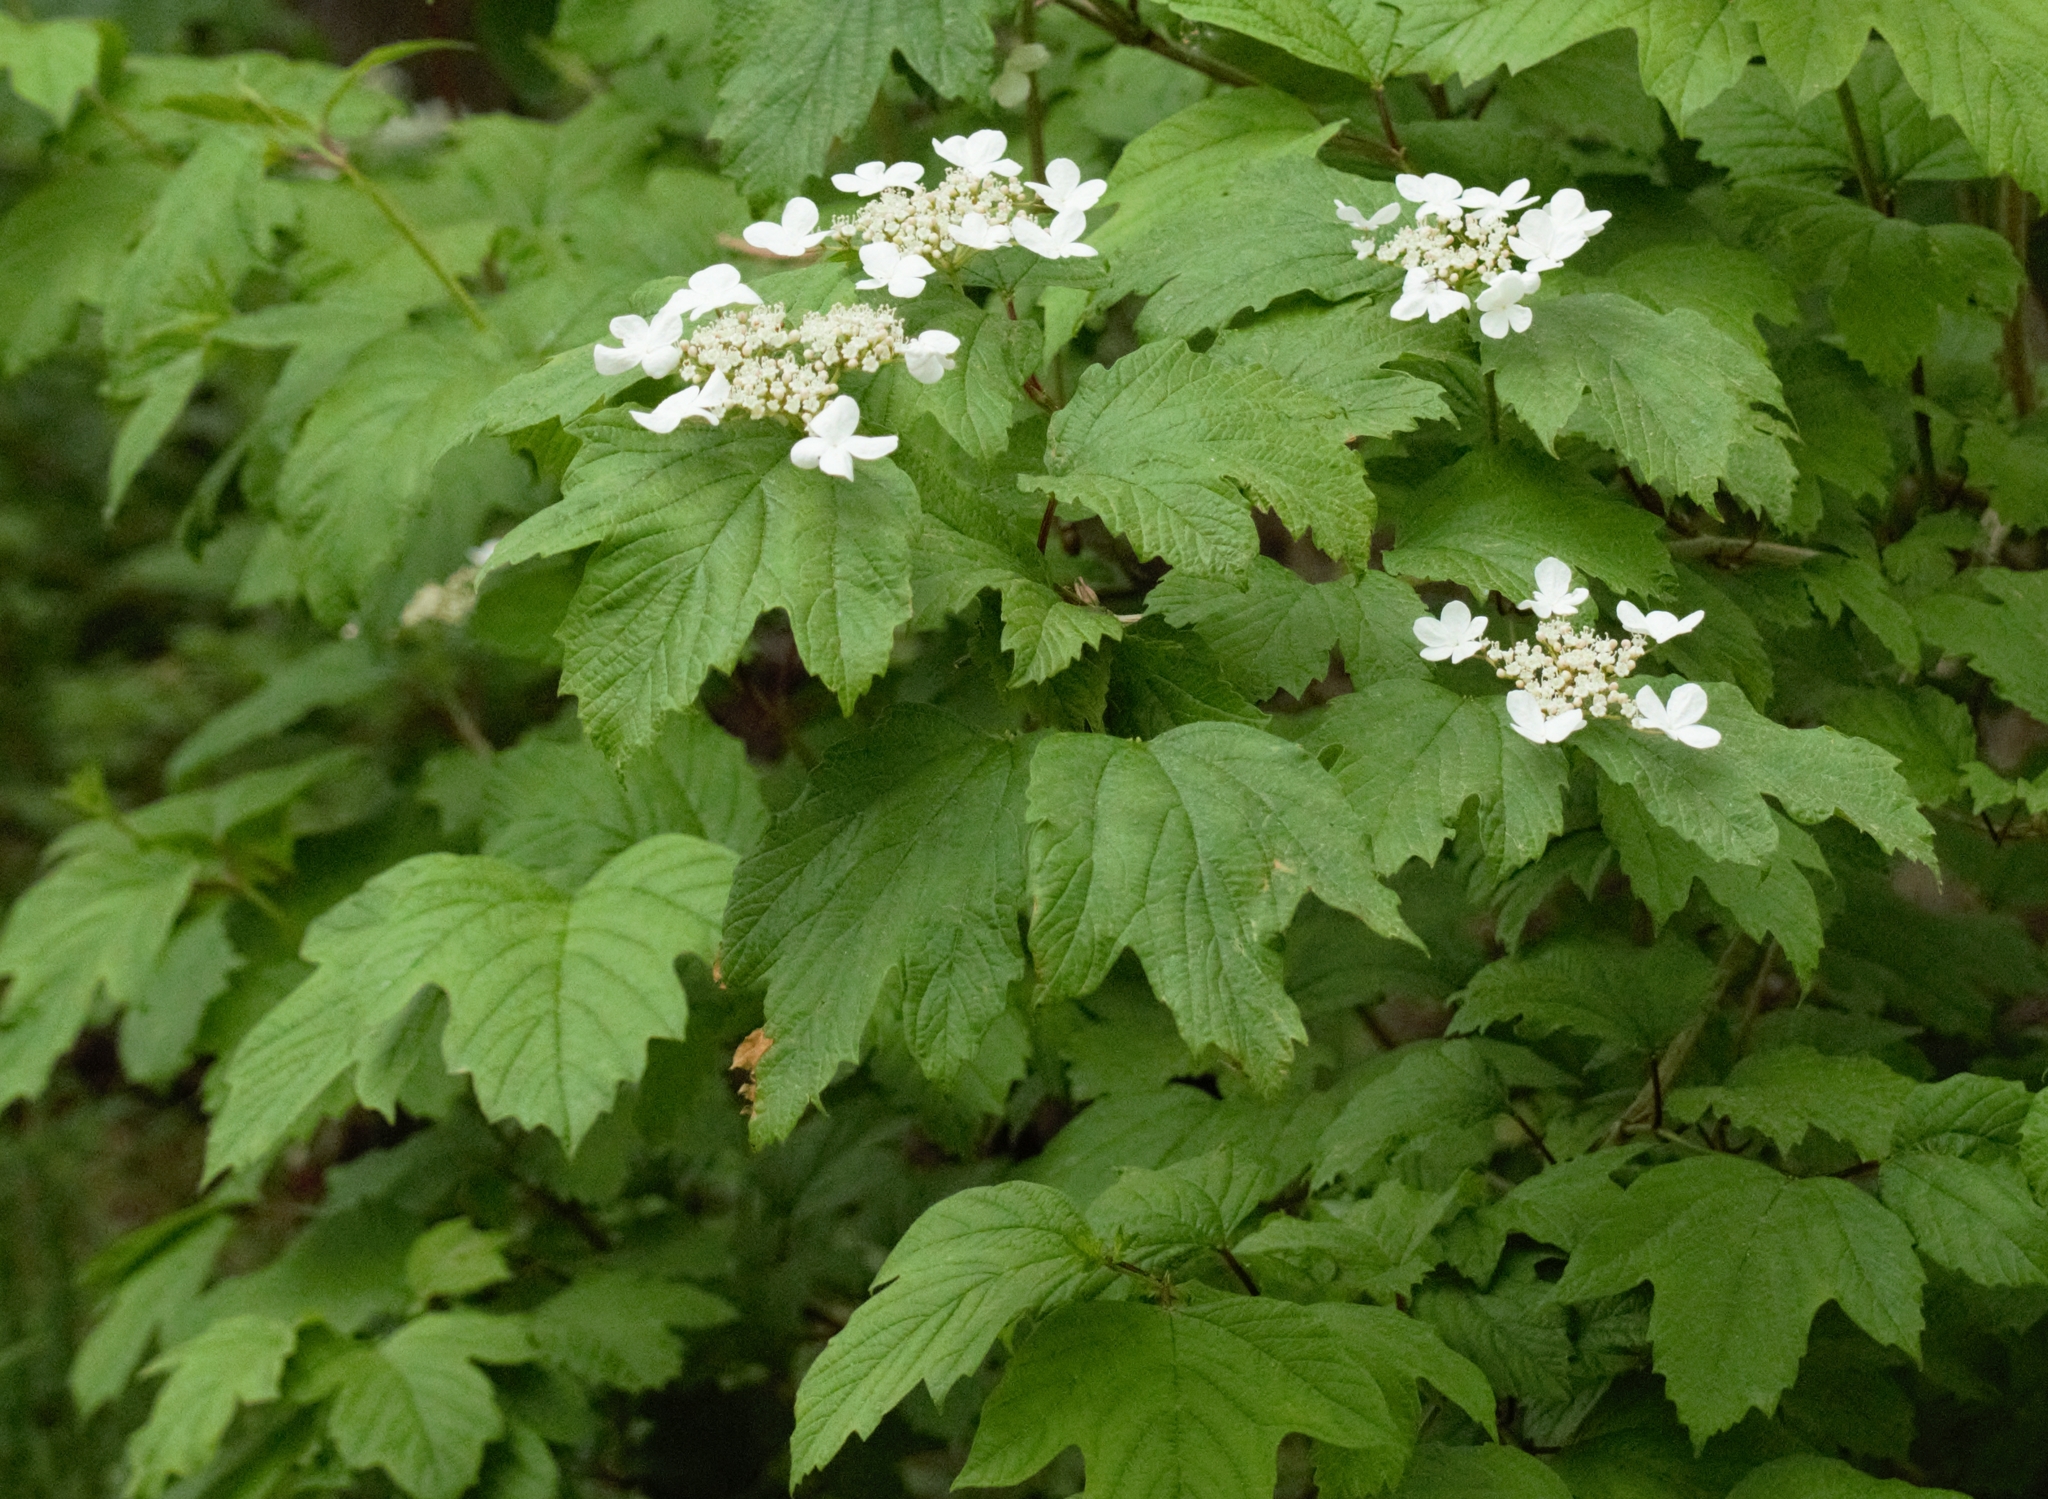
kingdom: Plantae
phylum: Tracheophyta
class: Magnoliopsida
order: Dipsacales
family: Viburnaceae
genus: Viburnum
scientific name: Viburnum opulus
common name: Guelder-rose
